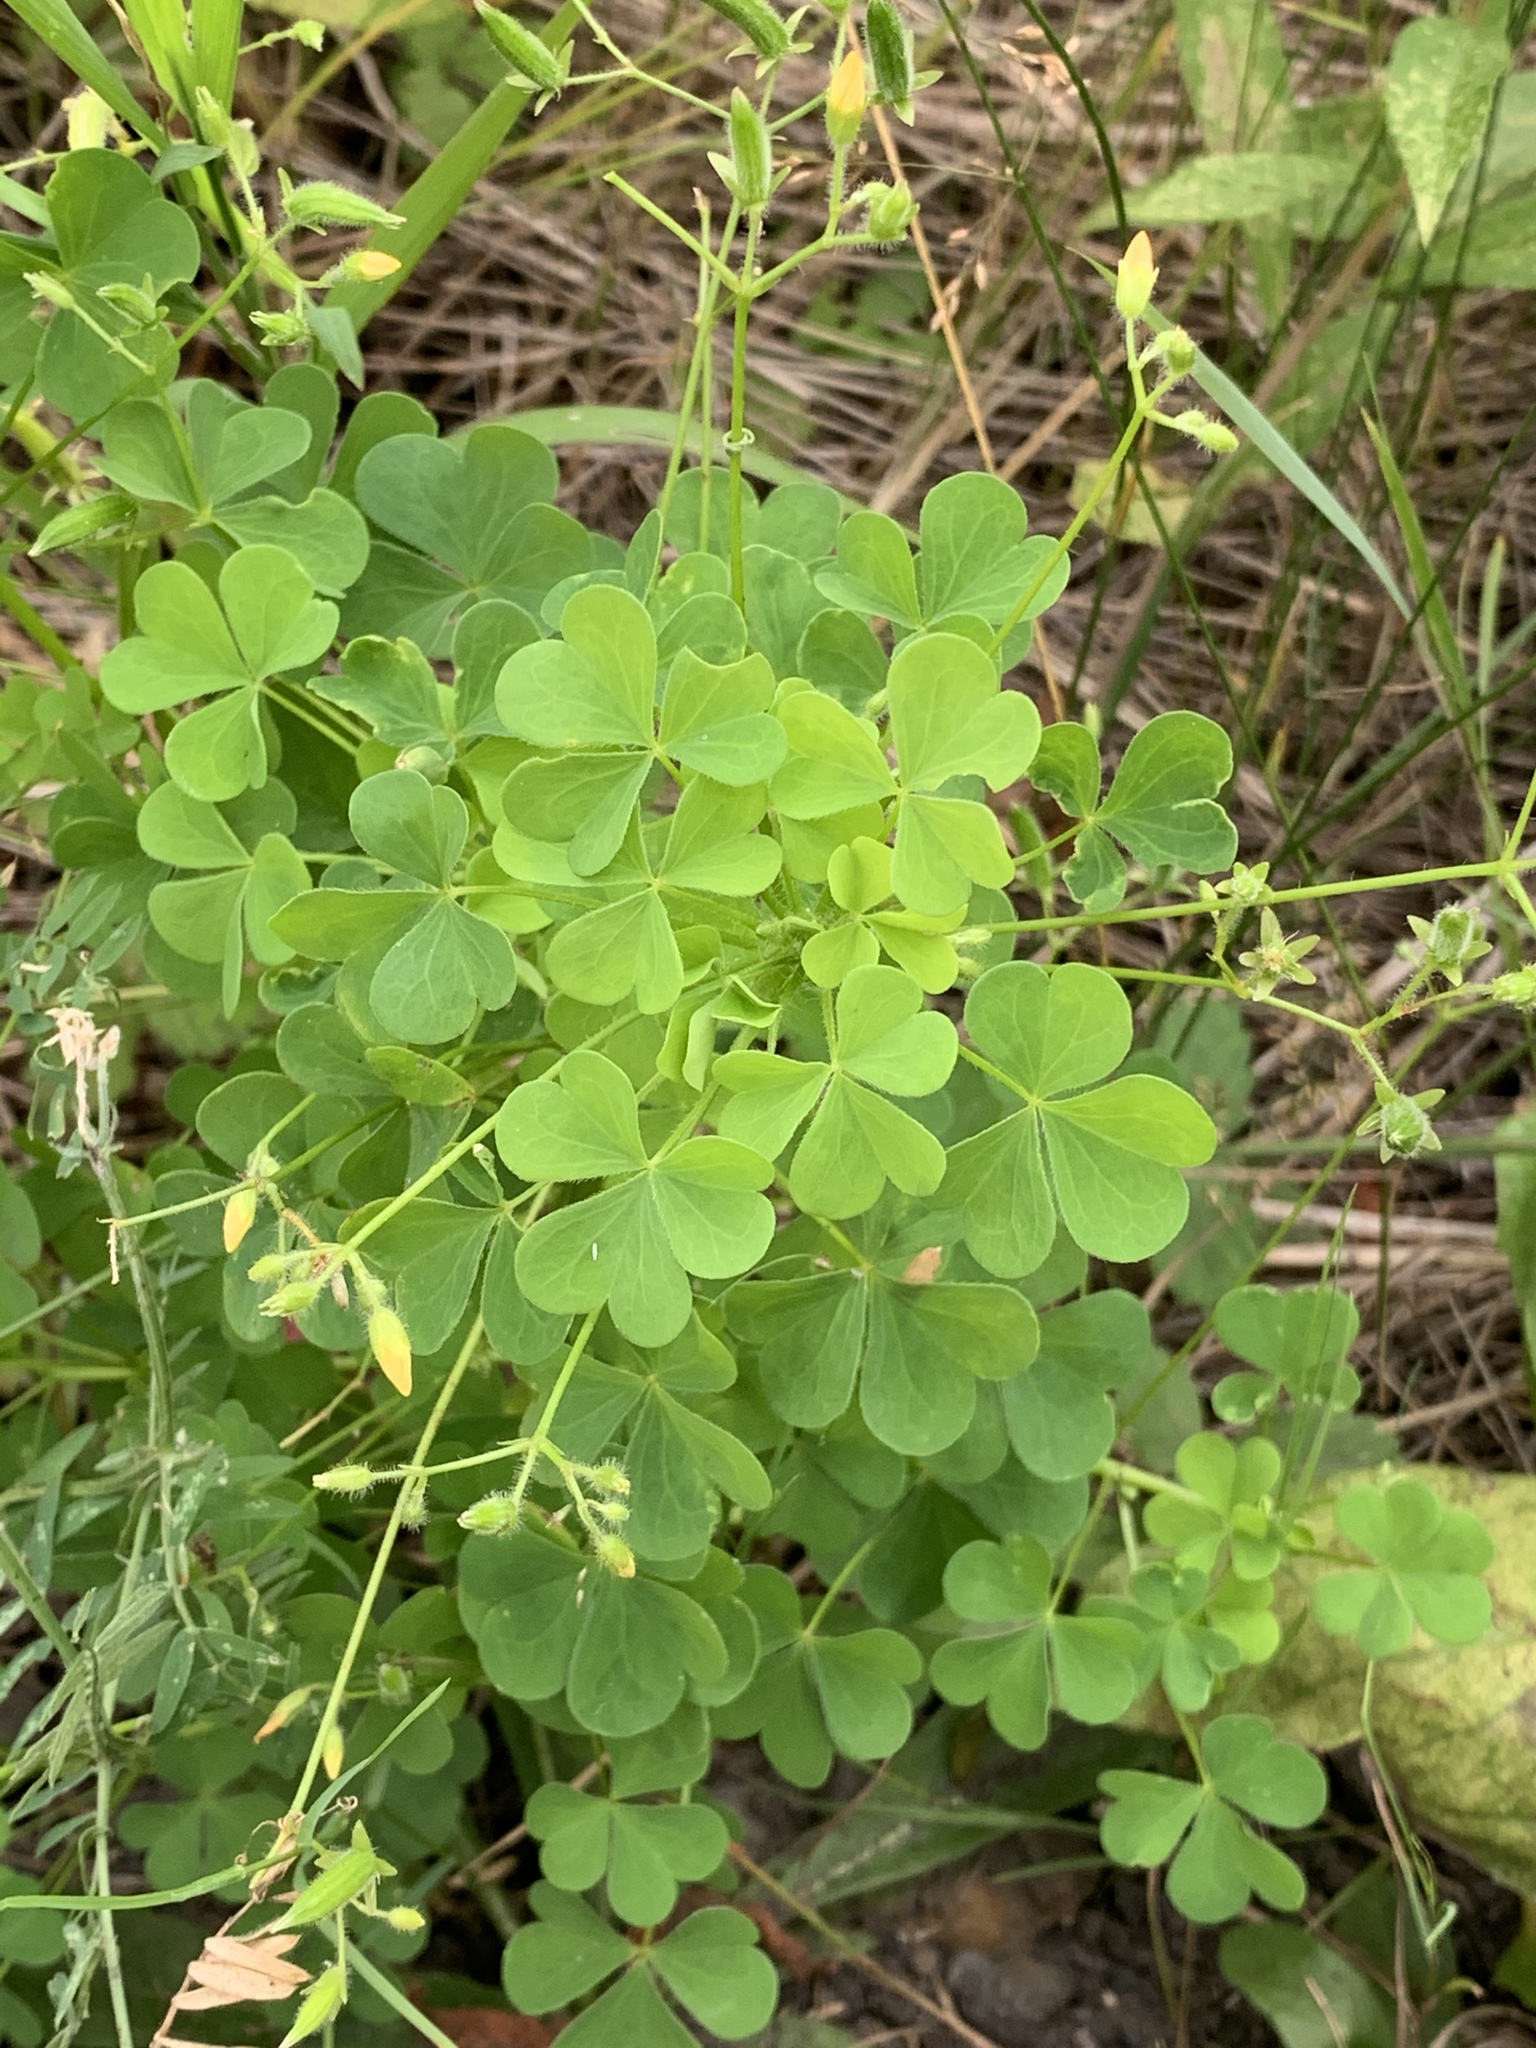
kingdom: Plantae
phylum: Tracheophyta
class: Magnoliopsida
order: Oxalidales
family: Oxalidaceae
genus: Oxalis
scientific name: Oxalis stricta
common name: Upright yellow-sorrel
